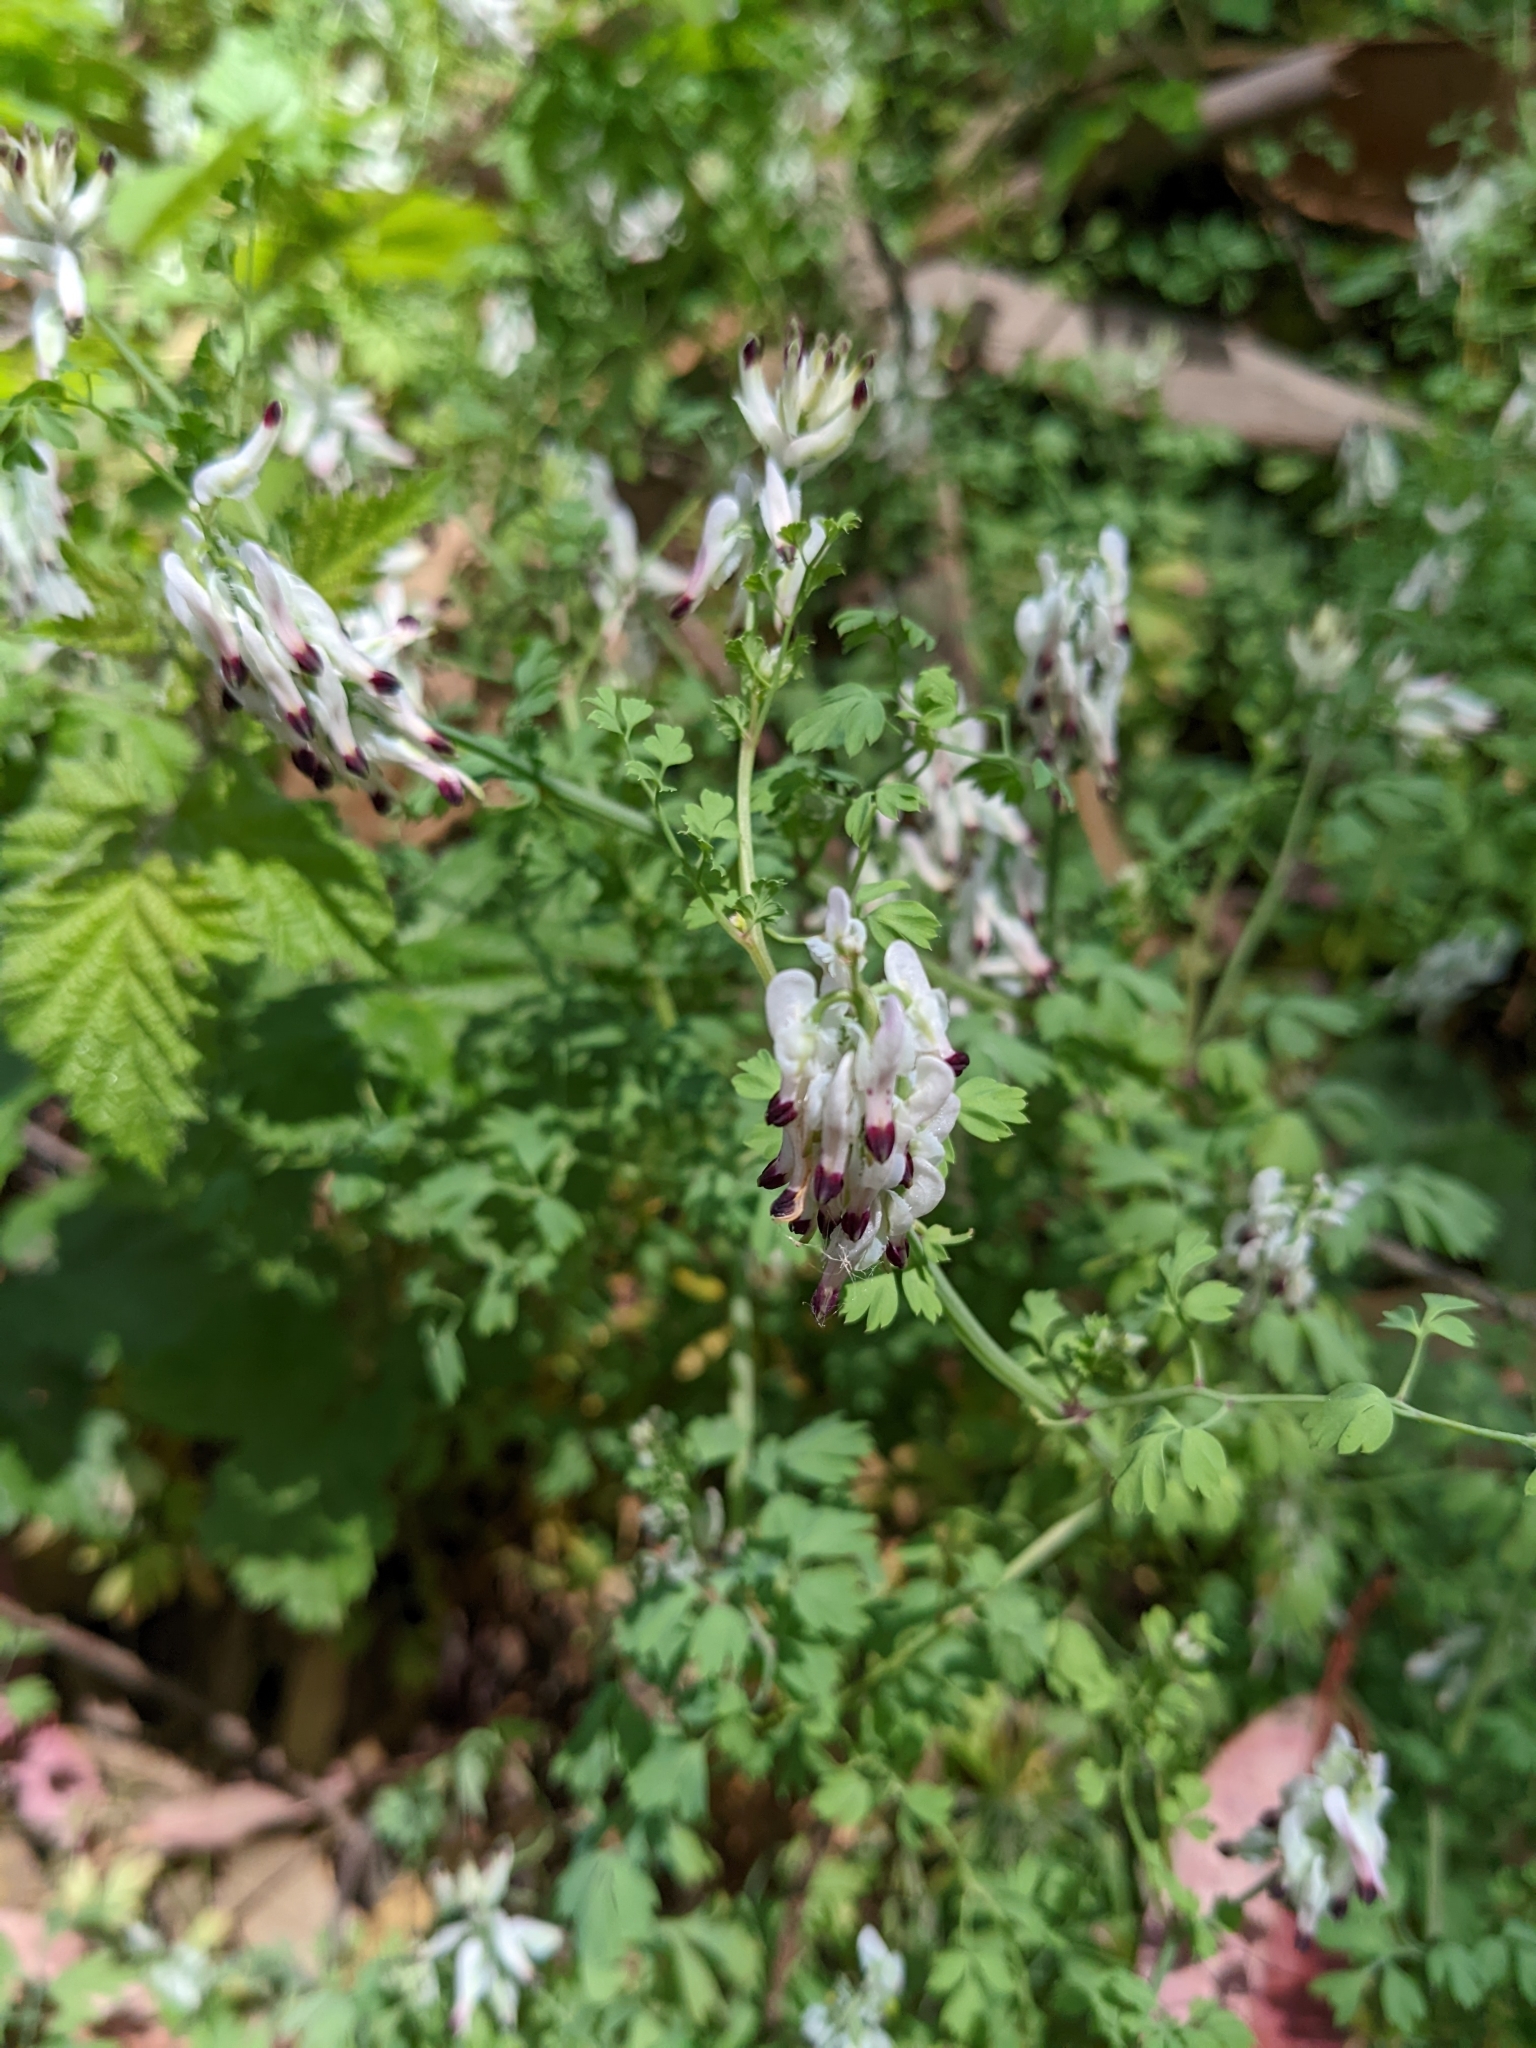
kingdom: Plantae
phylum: Tracheophyta
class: Magnoliopsida
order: Ranunculales
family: Papaveraceae
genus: Fumaria
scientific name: Fumaria capreolata
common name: White ramping-fumitory
